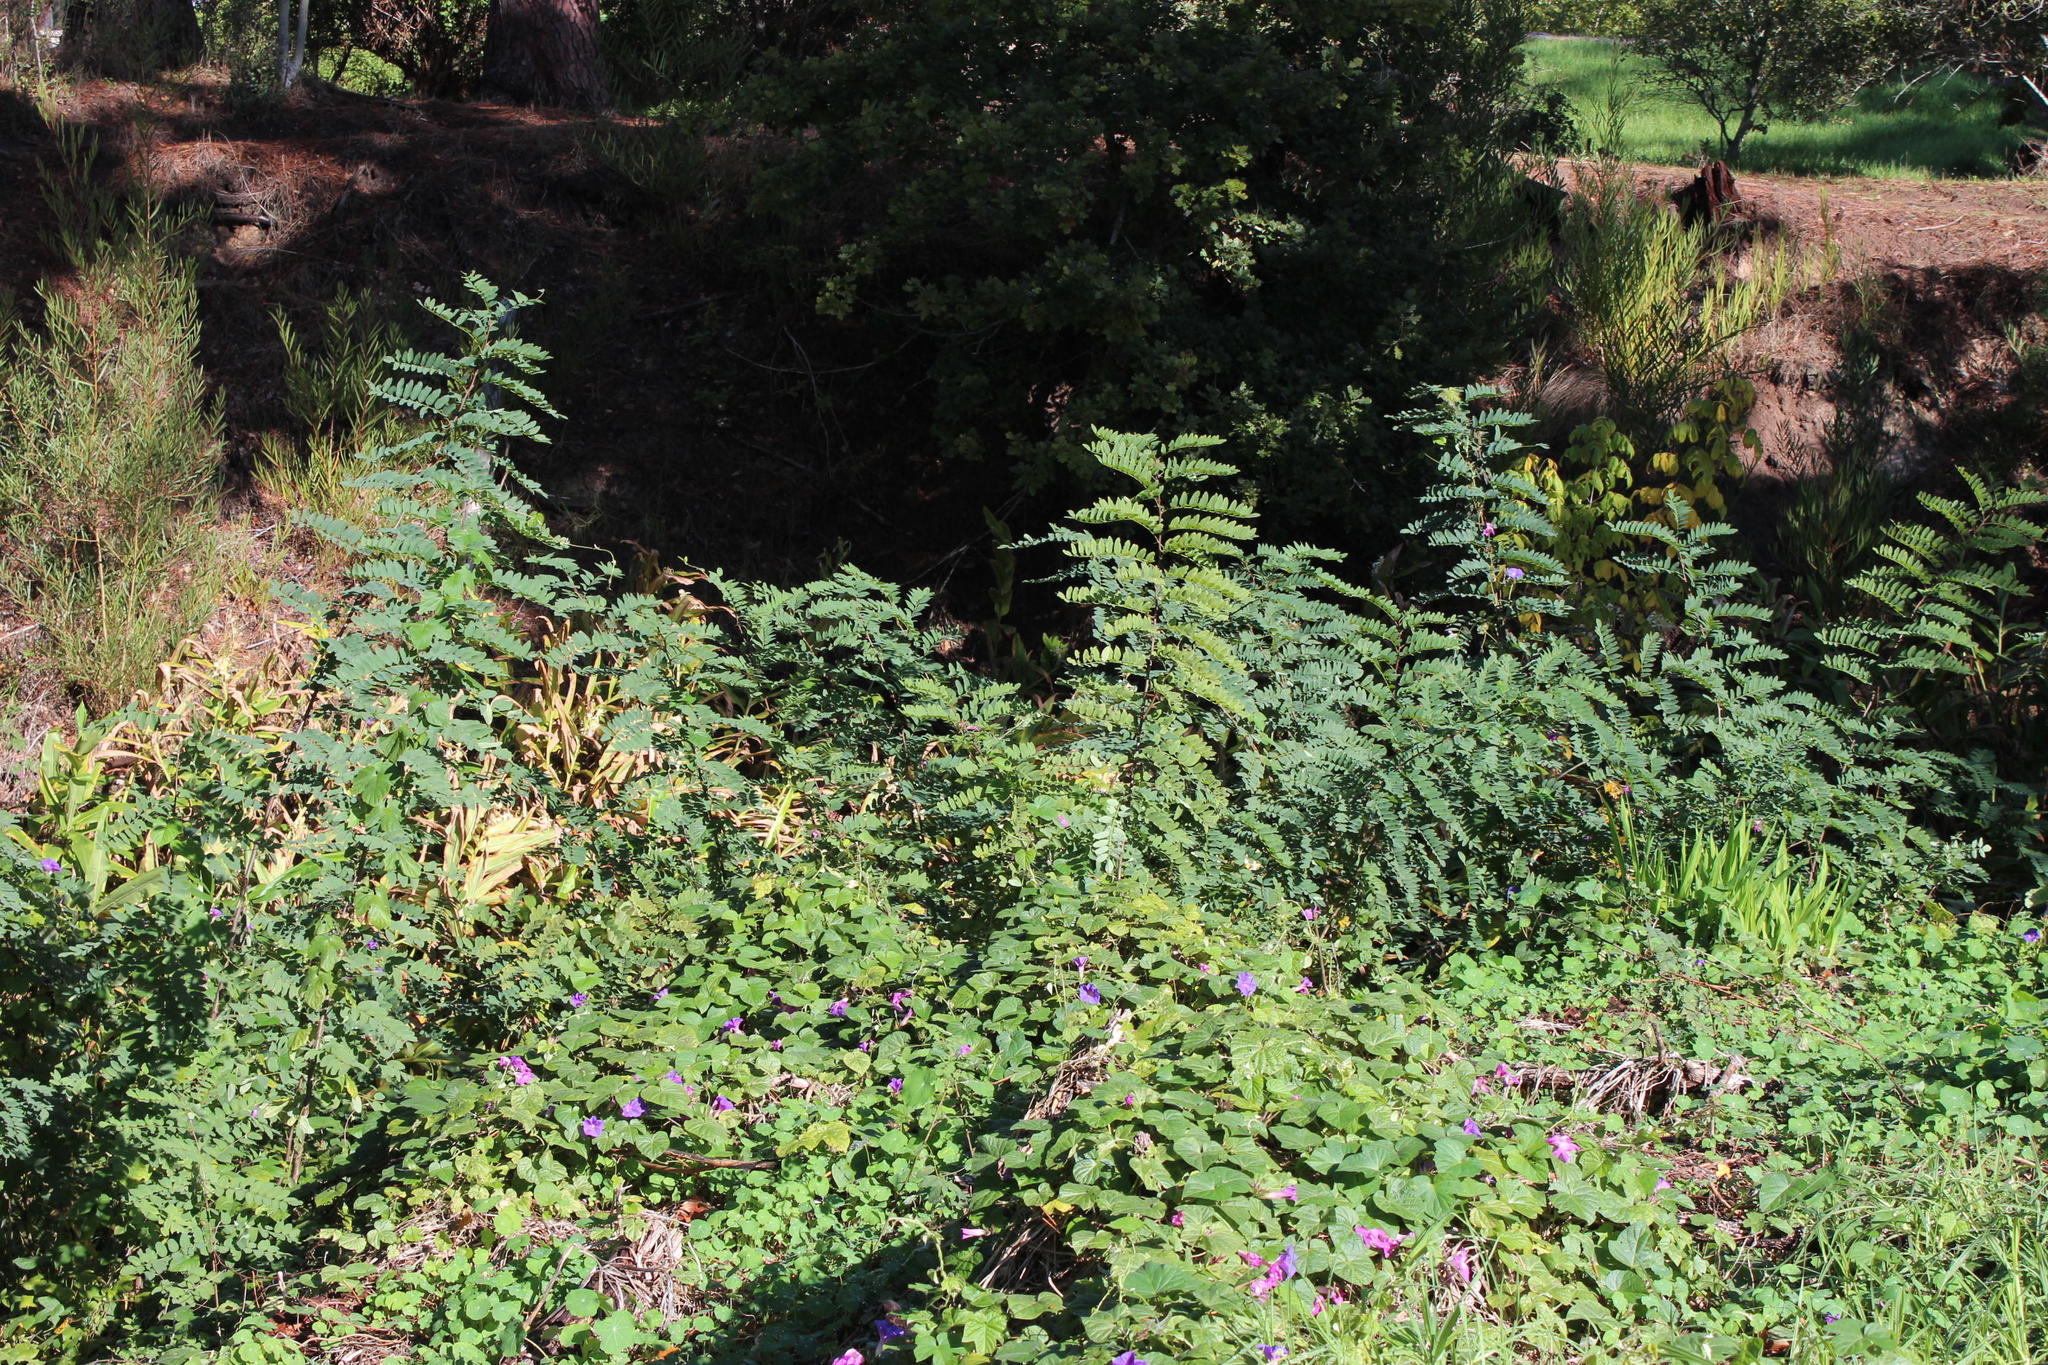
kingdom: Plantae
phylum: Tracheophyta
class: Magnoliopsida
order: Fabales
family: Fabaceae
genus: Robinia
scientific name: Robinia pseudoacacia
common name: Black locust
